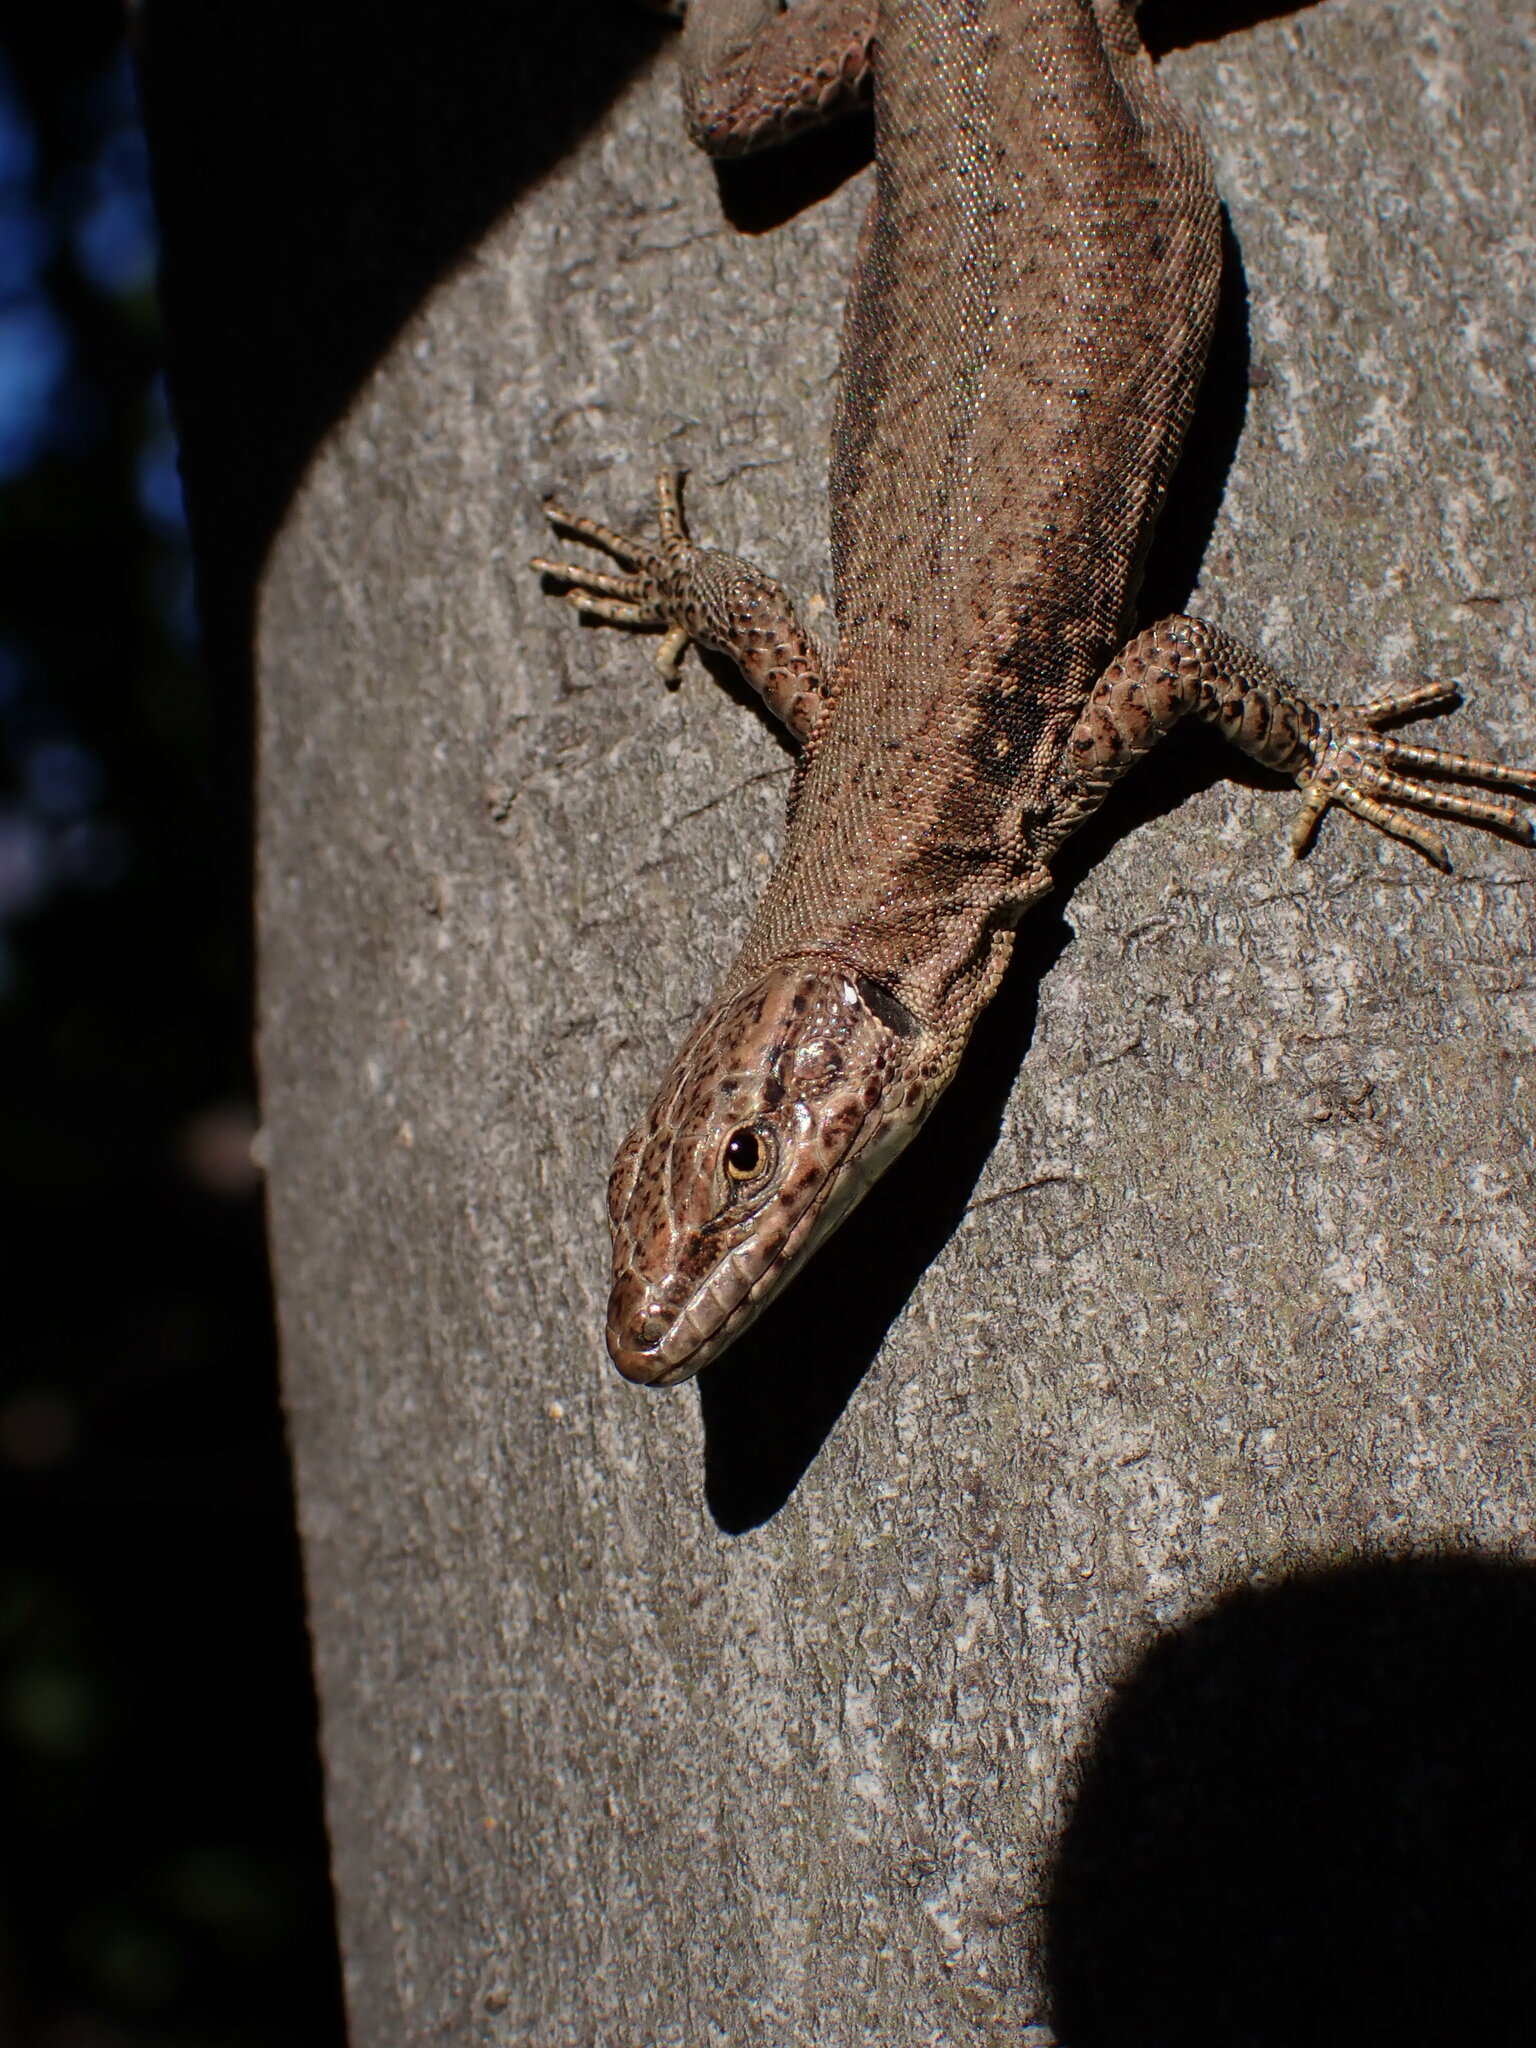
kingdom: Animalia
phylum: Chordata
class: Squamata
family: Lacertidae
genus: Podarcis
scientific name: Podarcis muralis
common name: Common wall lizard
